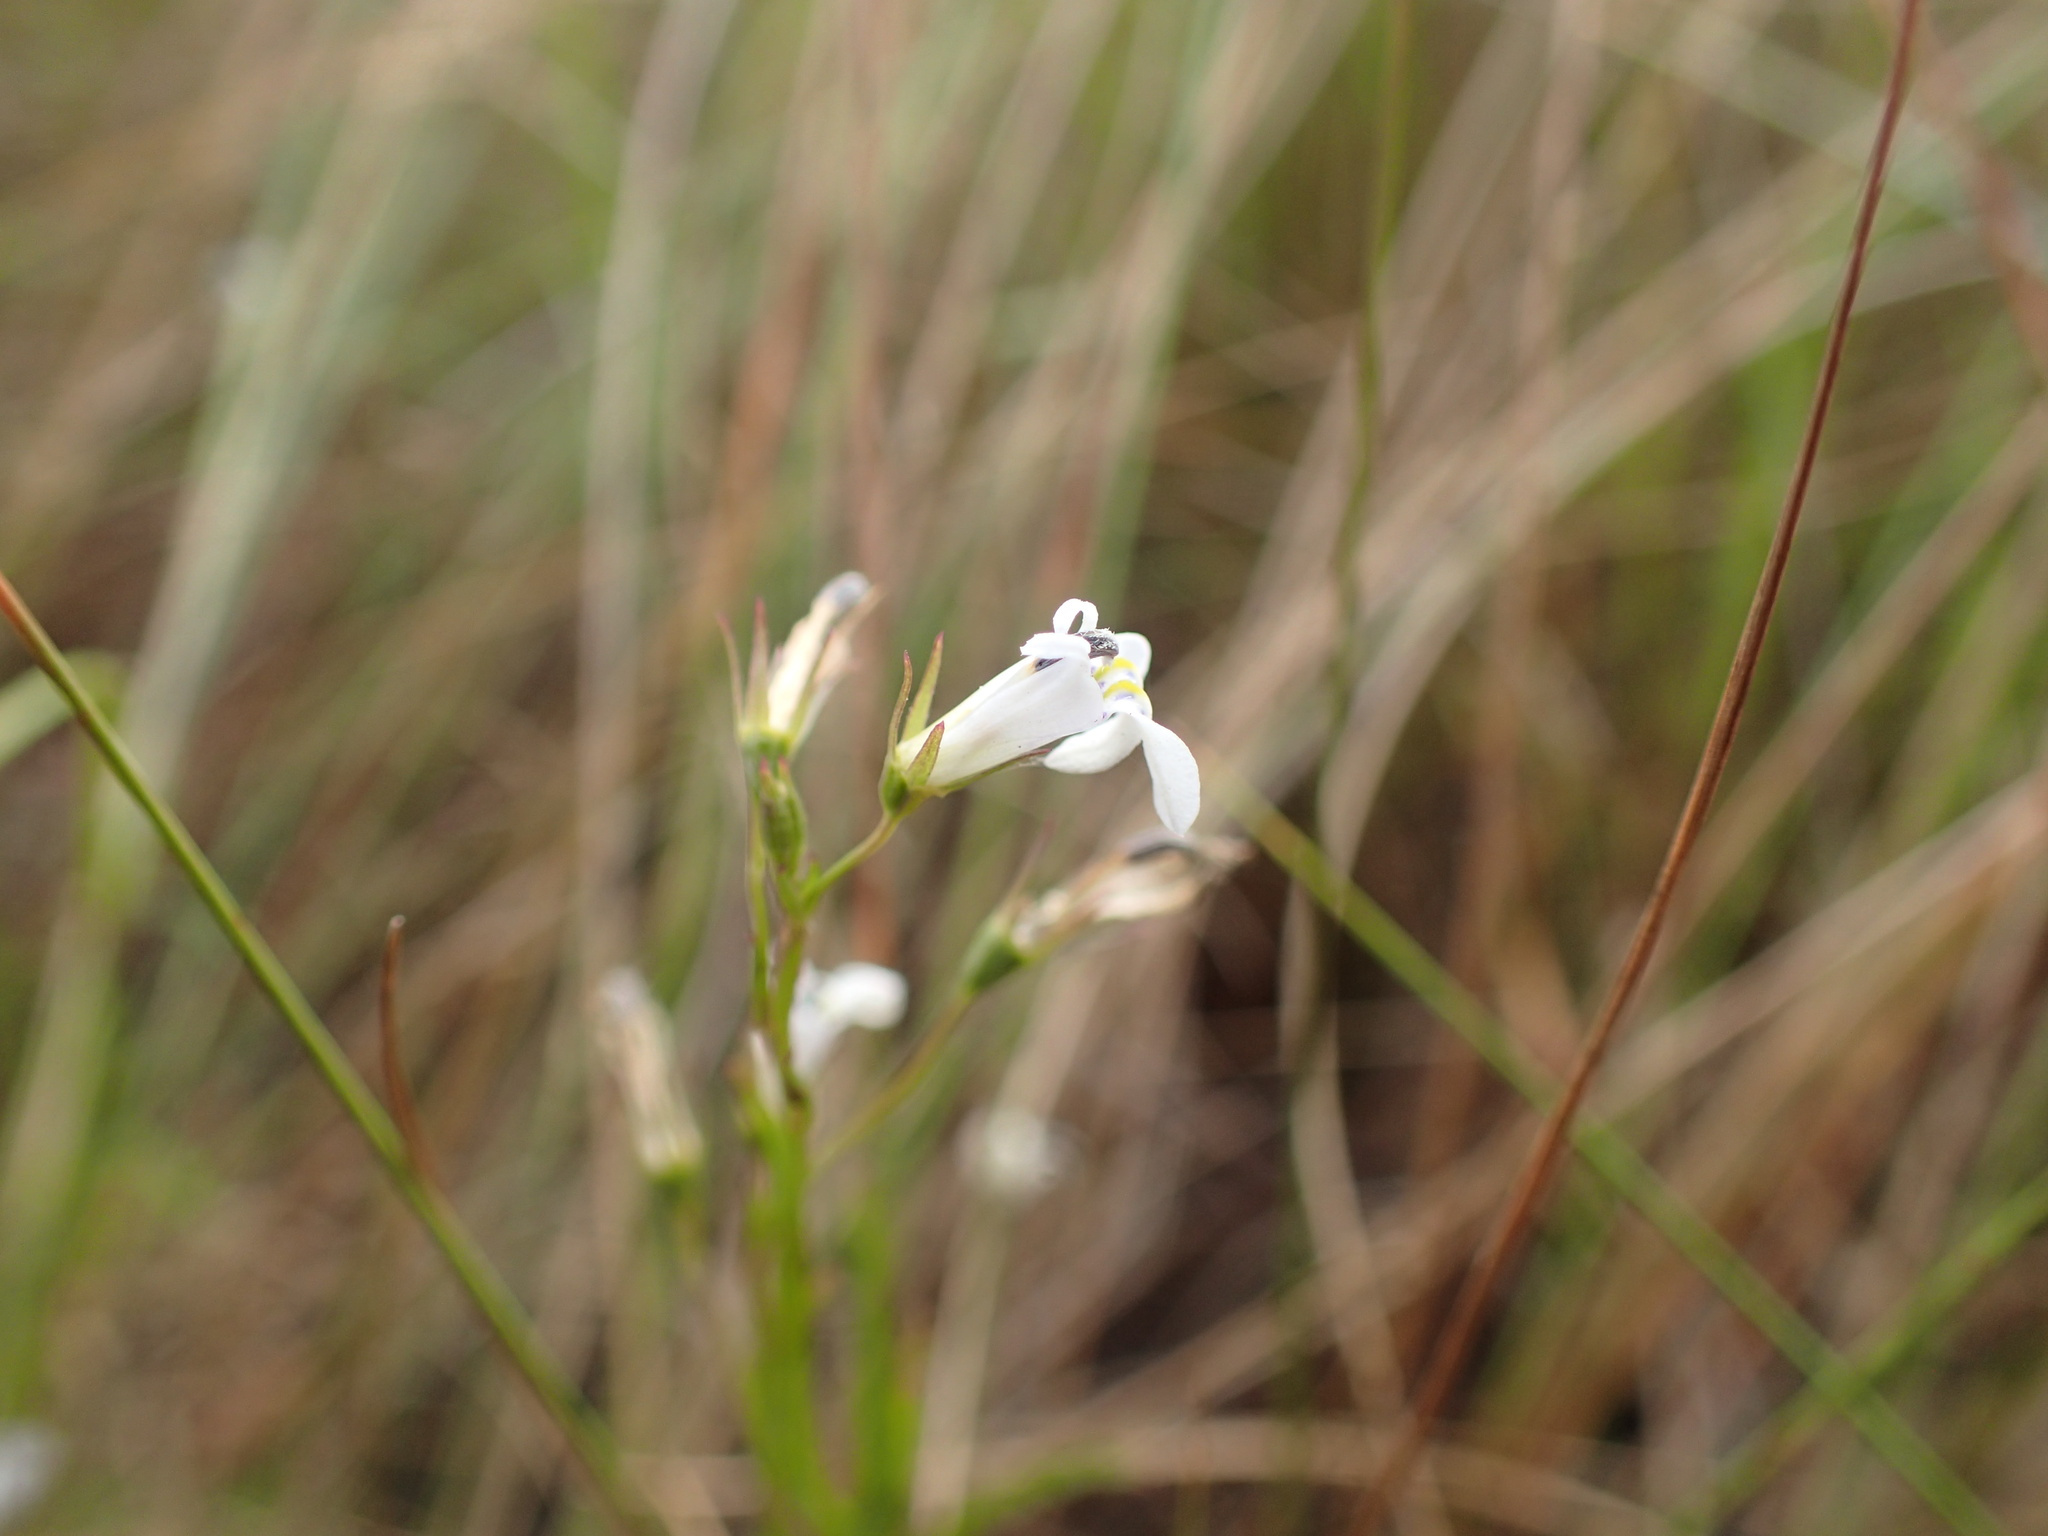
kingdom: Plantae
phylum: Tracheophyta
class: Magnoliopsida
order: Asterales
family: Campanulaceae
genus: Lobelia
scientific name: Lobelia flaccida
